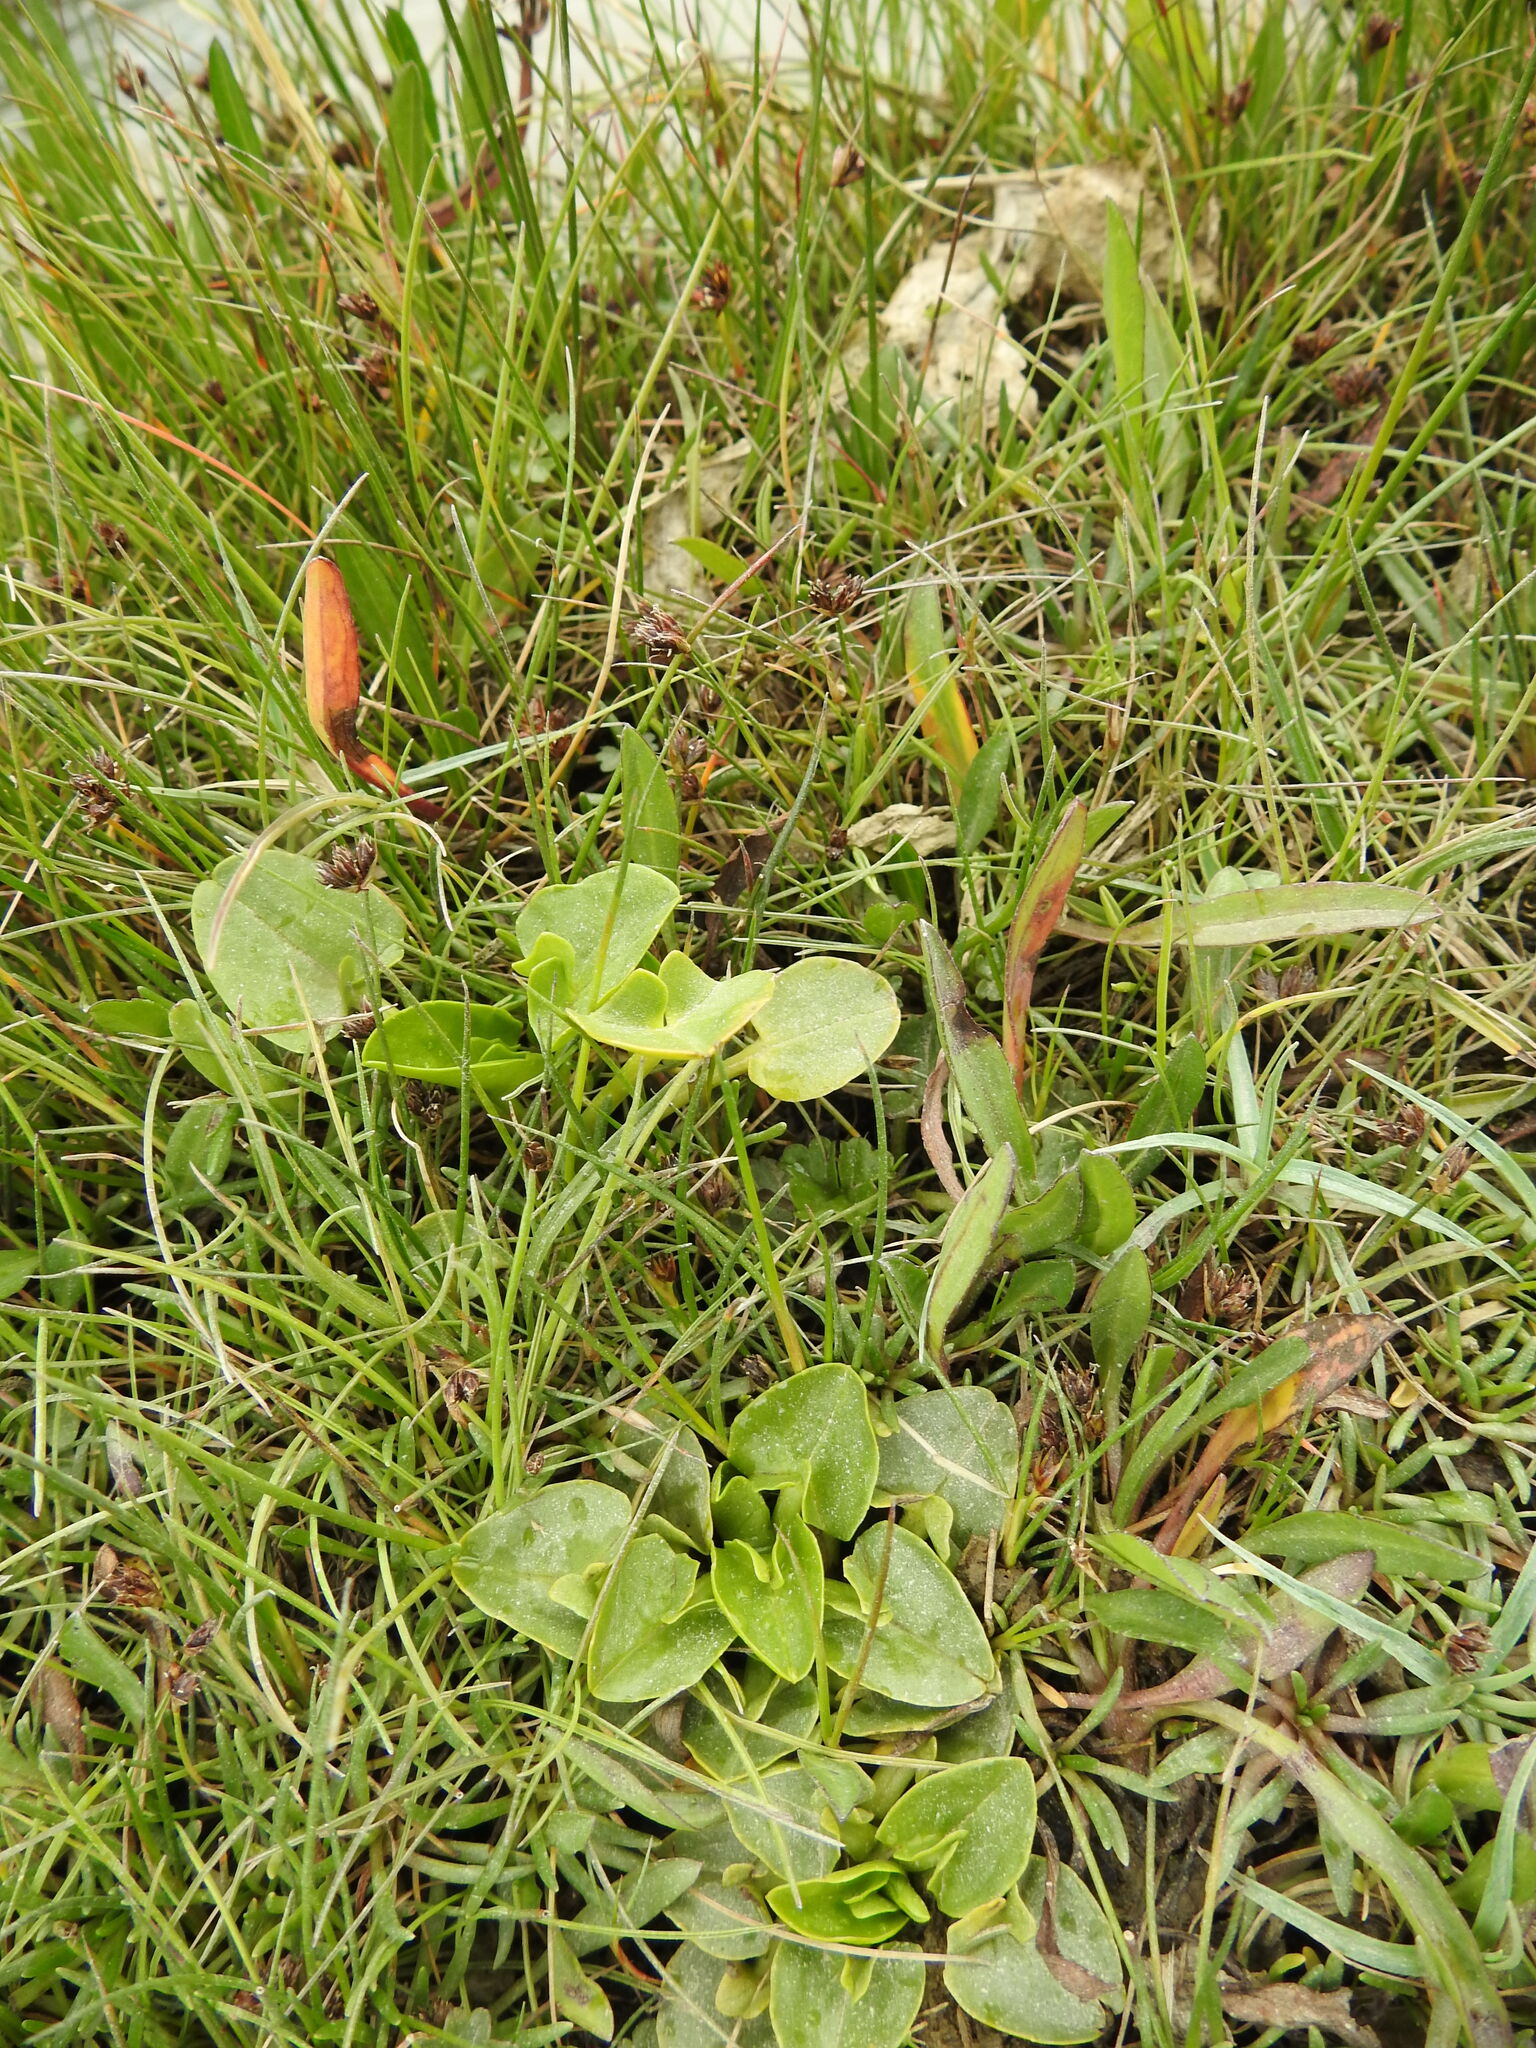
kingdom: Plantae
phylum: Tracheophyta
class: Magnoliopsida
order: Ranunculales
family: Ranunculaceae
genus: Caltha
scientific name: Caltha sagittata
